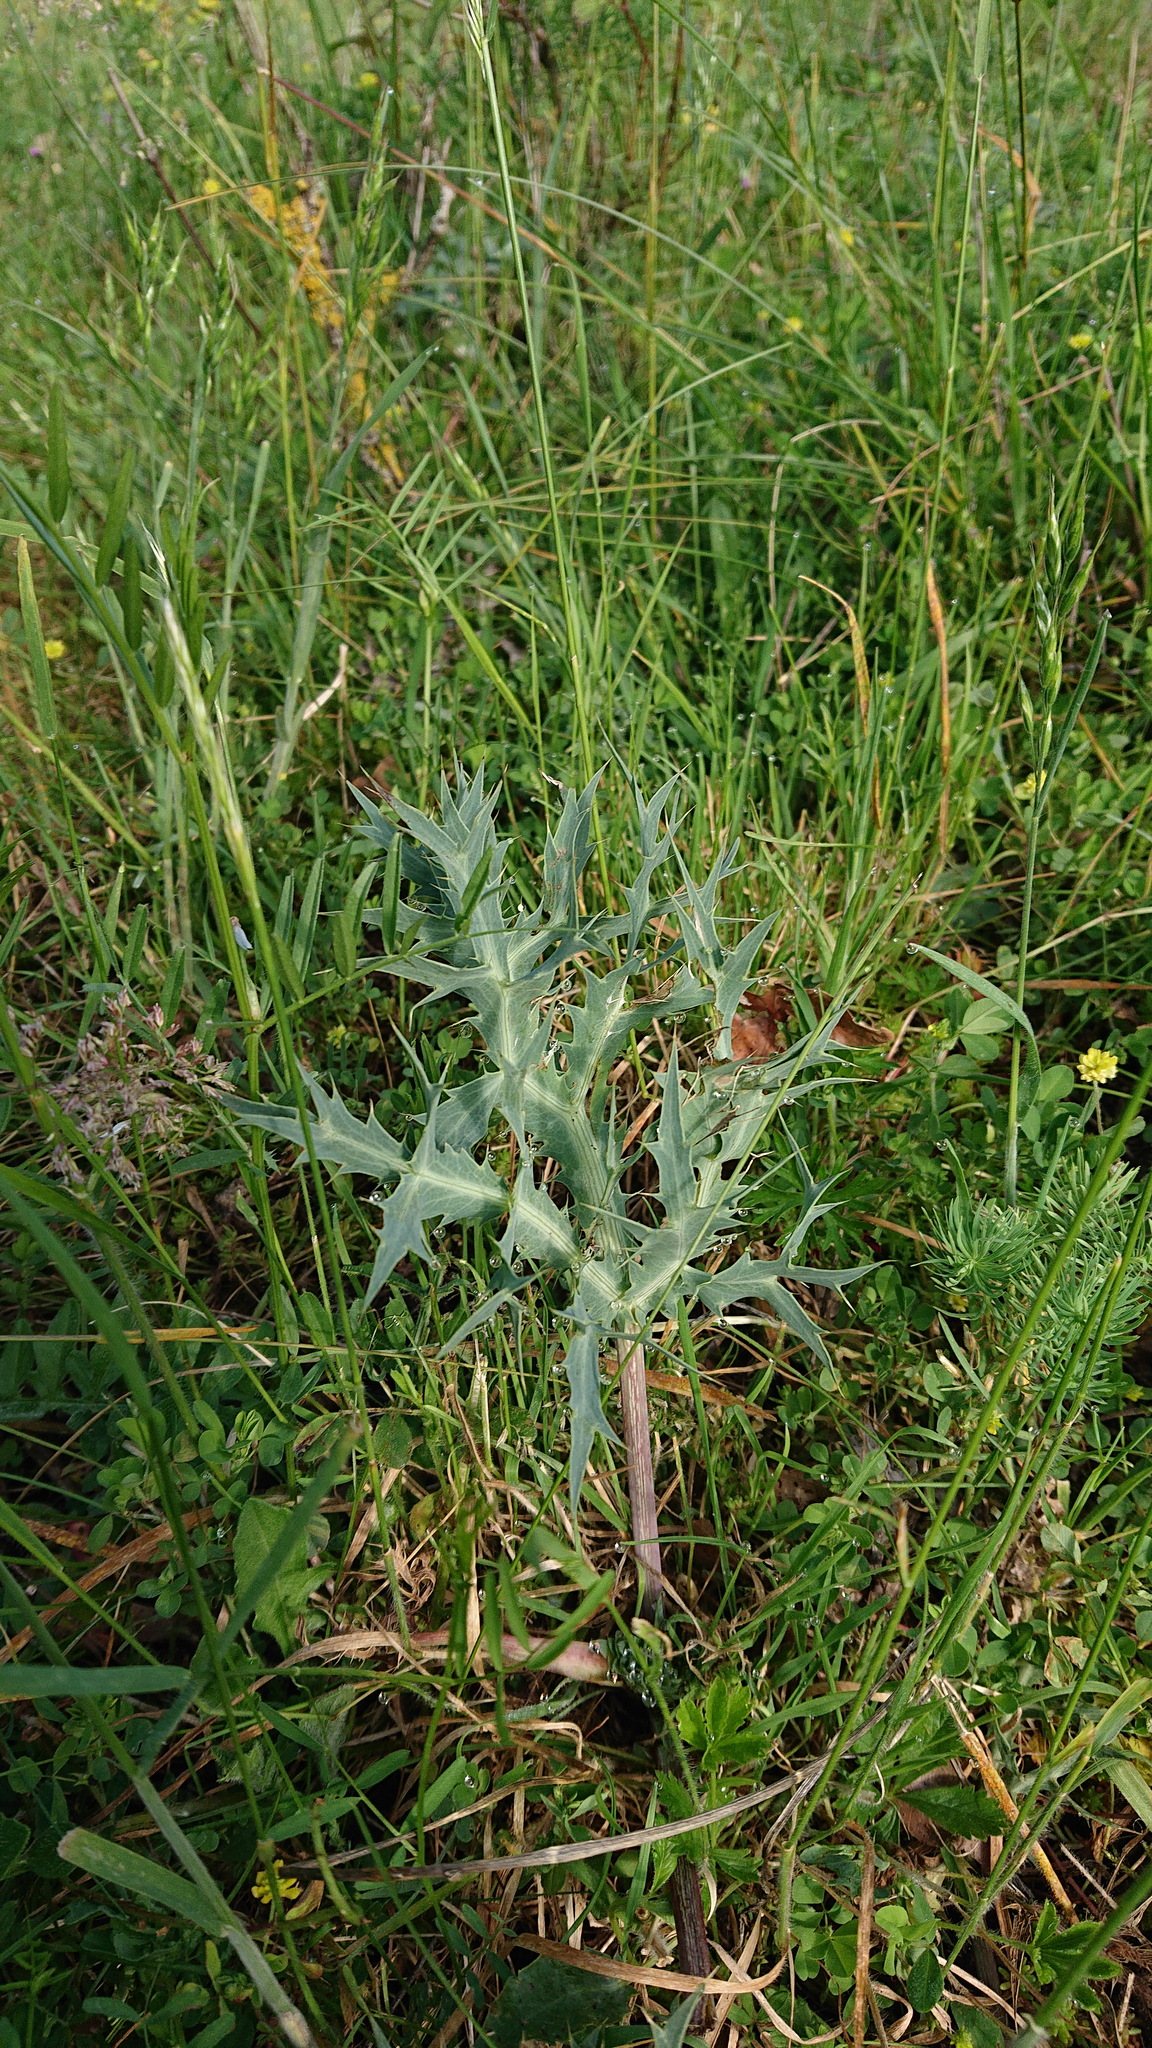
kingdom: Plantae
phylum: Tracheophyta
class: Magnoliopsida
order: Apiales
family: Apiaceae
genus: Eryngium
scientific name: Eryngium campestre
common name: Field eryngo
